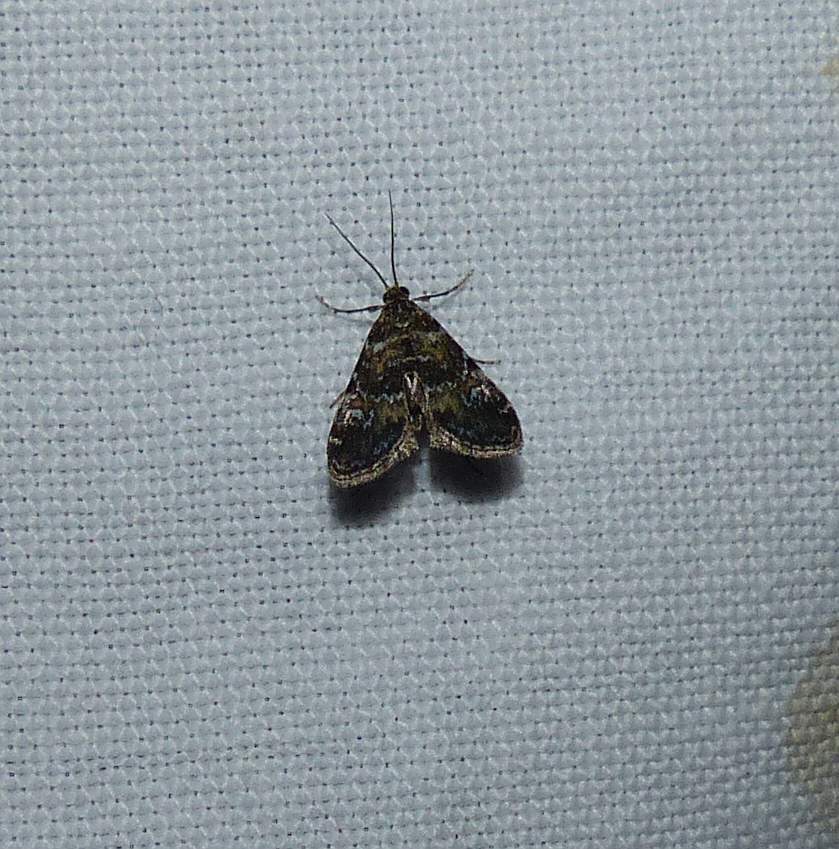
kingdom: Animalia
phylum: Arthropoda
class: Insecta
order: Lepidoptera
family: Crambidae
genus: Elophila
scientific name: Elophila obliteralis
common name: Waterlily leafcutter moth
